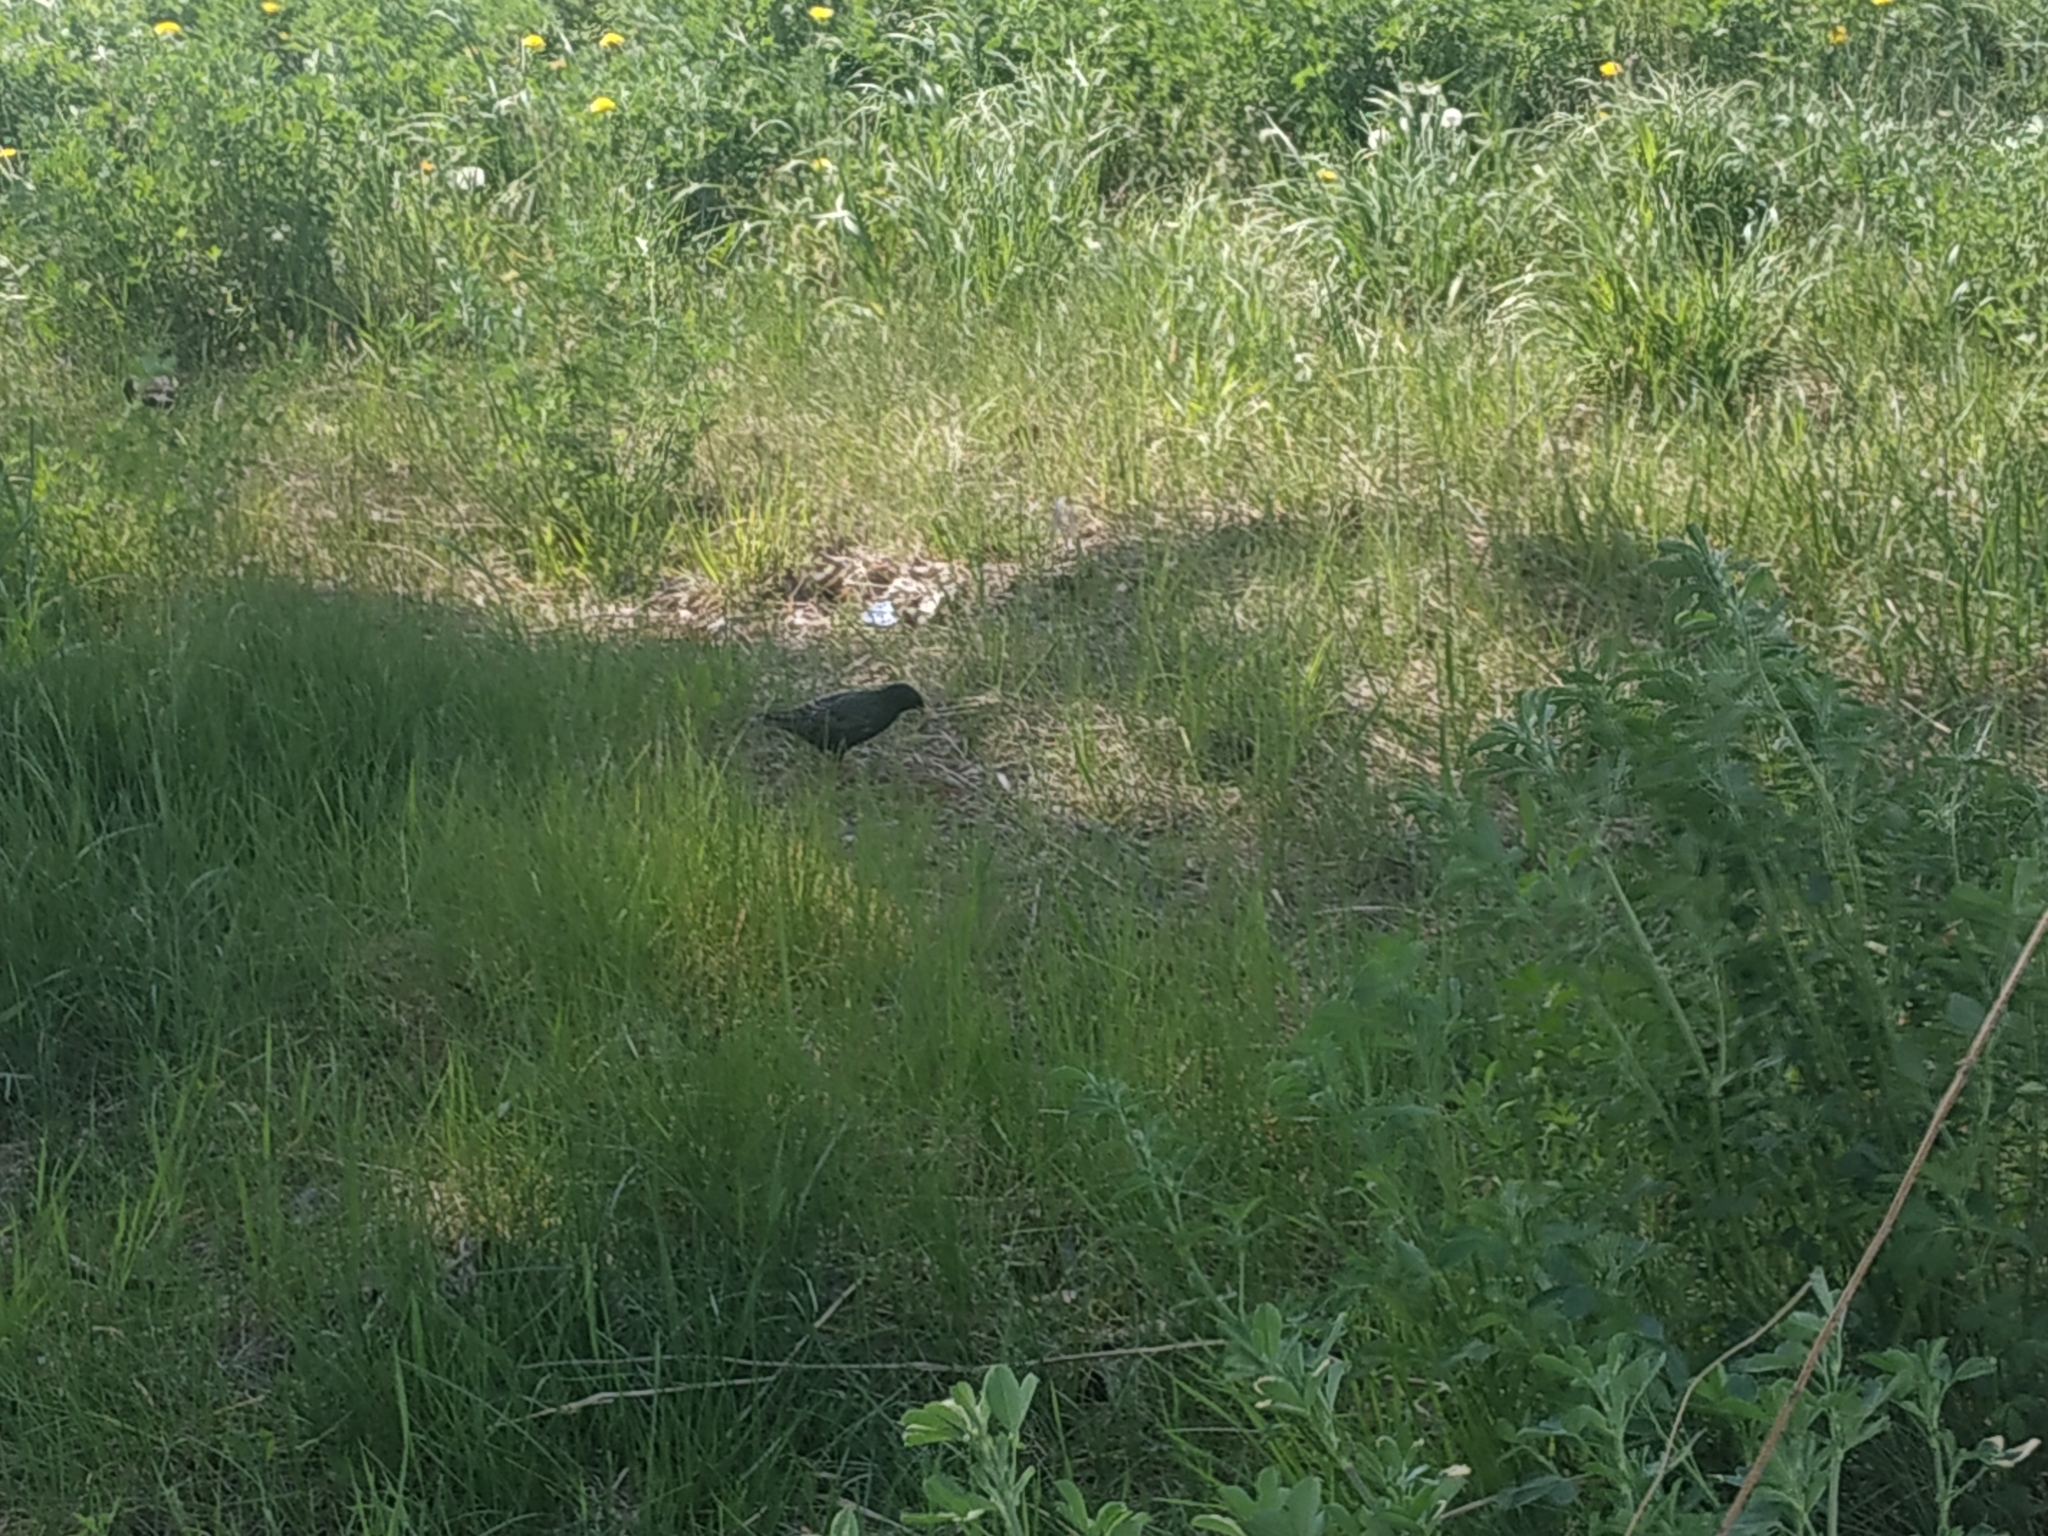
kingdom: Animalia
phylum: Chordata
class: Aves
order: Passeriformes
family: Sturnidae
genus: Sturnus
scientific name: Sturnus vulgaris
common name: Common starling
